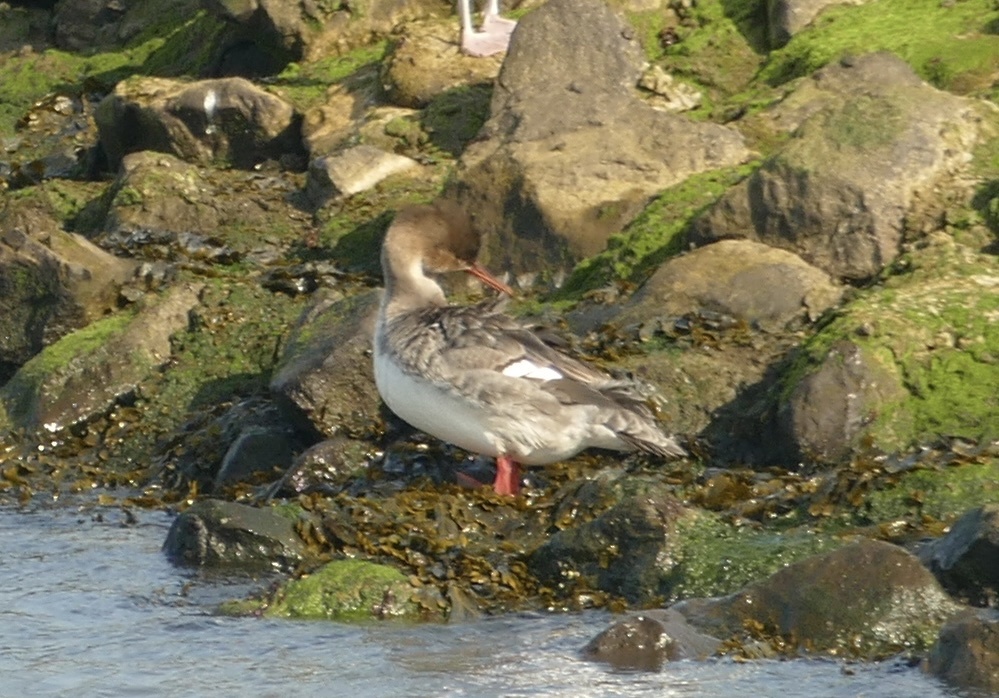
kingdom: Animalia
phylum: Chordata
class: Aves
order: Anseriformes
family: Anatidae
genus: Mergus
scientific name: Mergus serrator
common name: Red-breasted merganser
